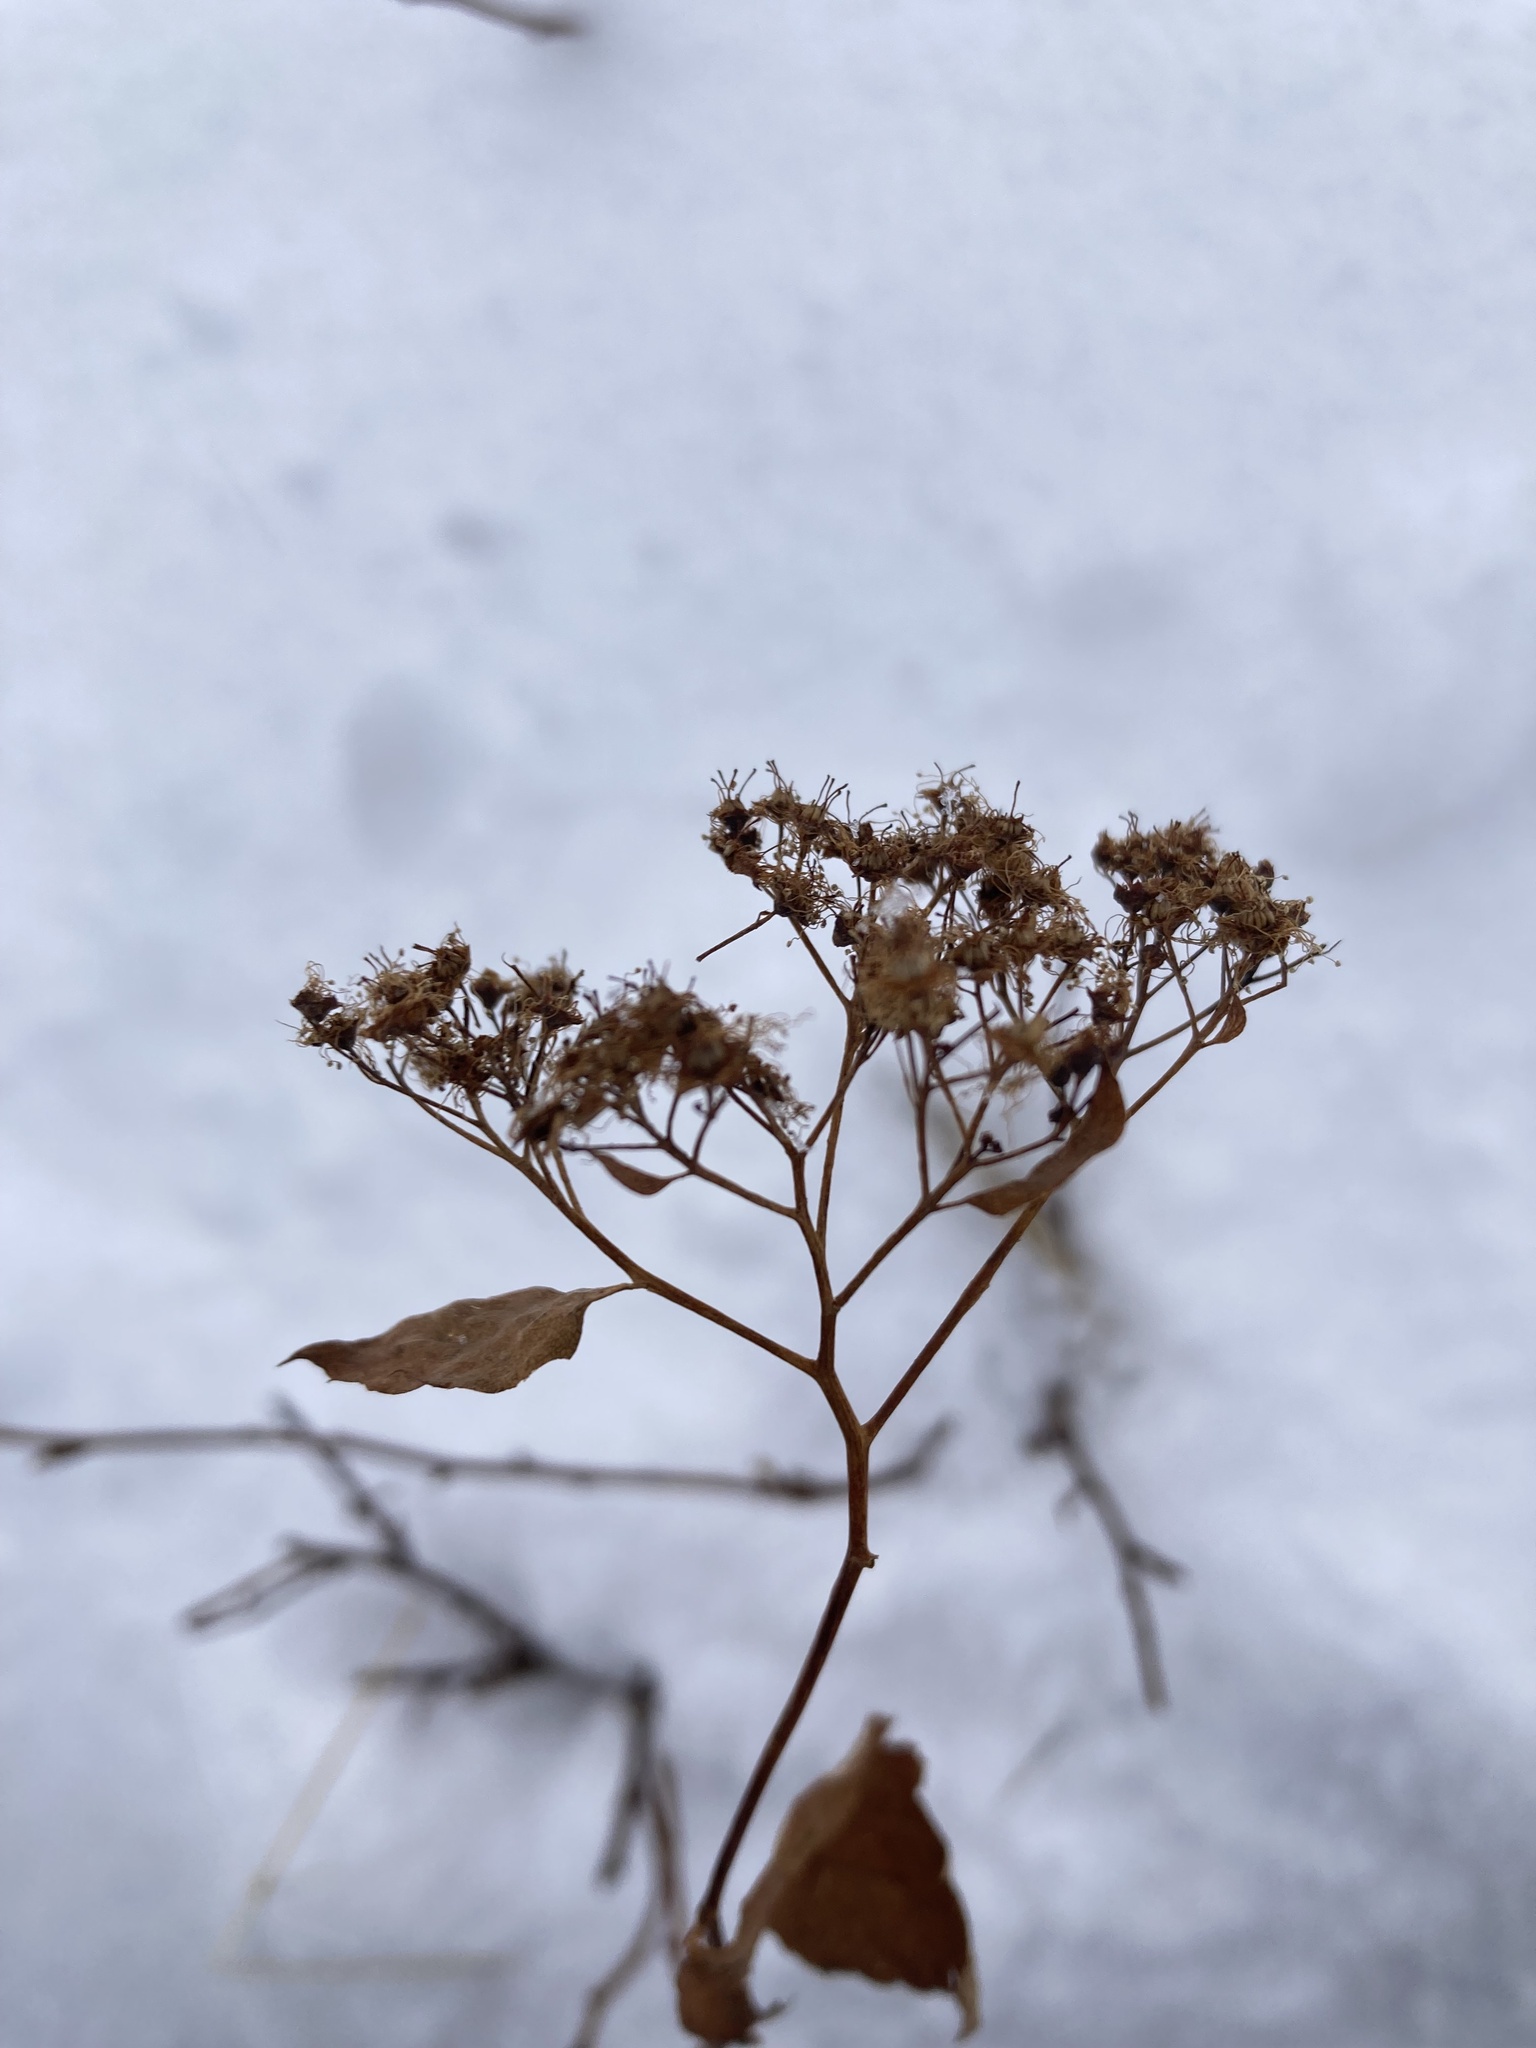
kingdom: Plantae
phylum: Tracheophyta
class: Magnoliopsida
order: Rosales
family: Rosaceae
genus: Spiraea
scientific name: Spiraea lucida
